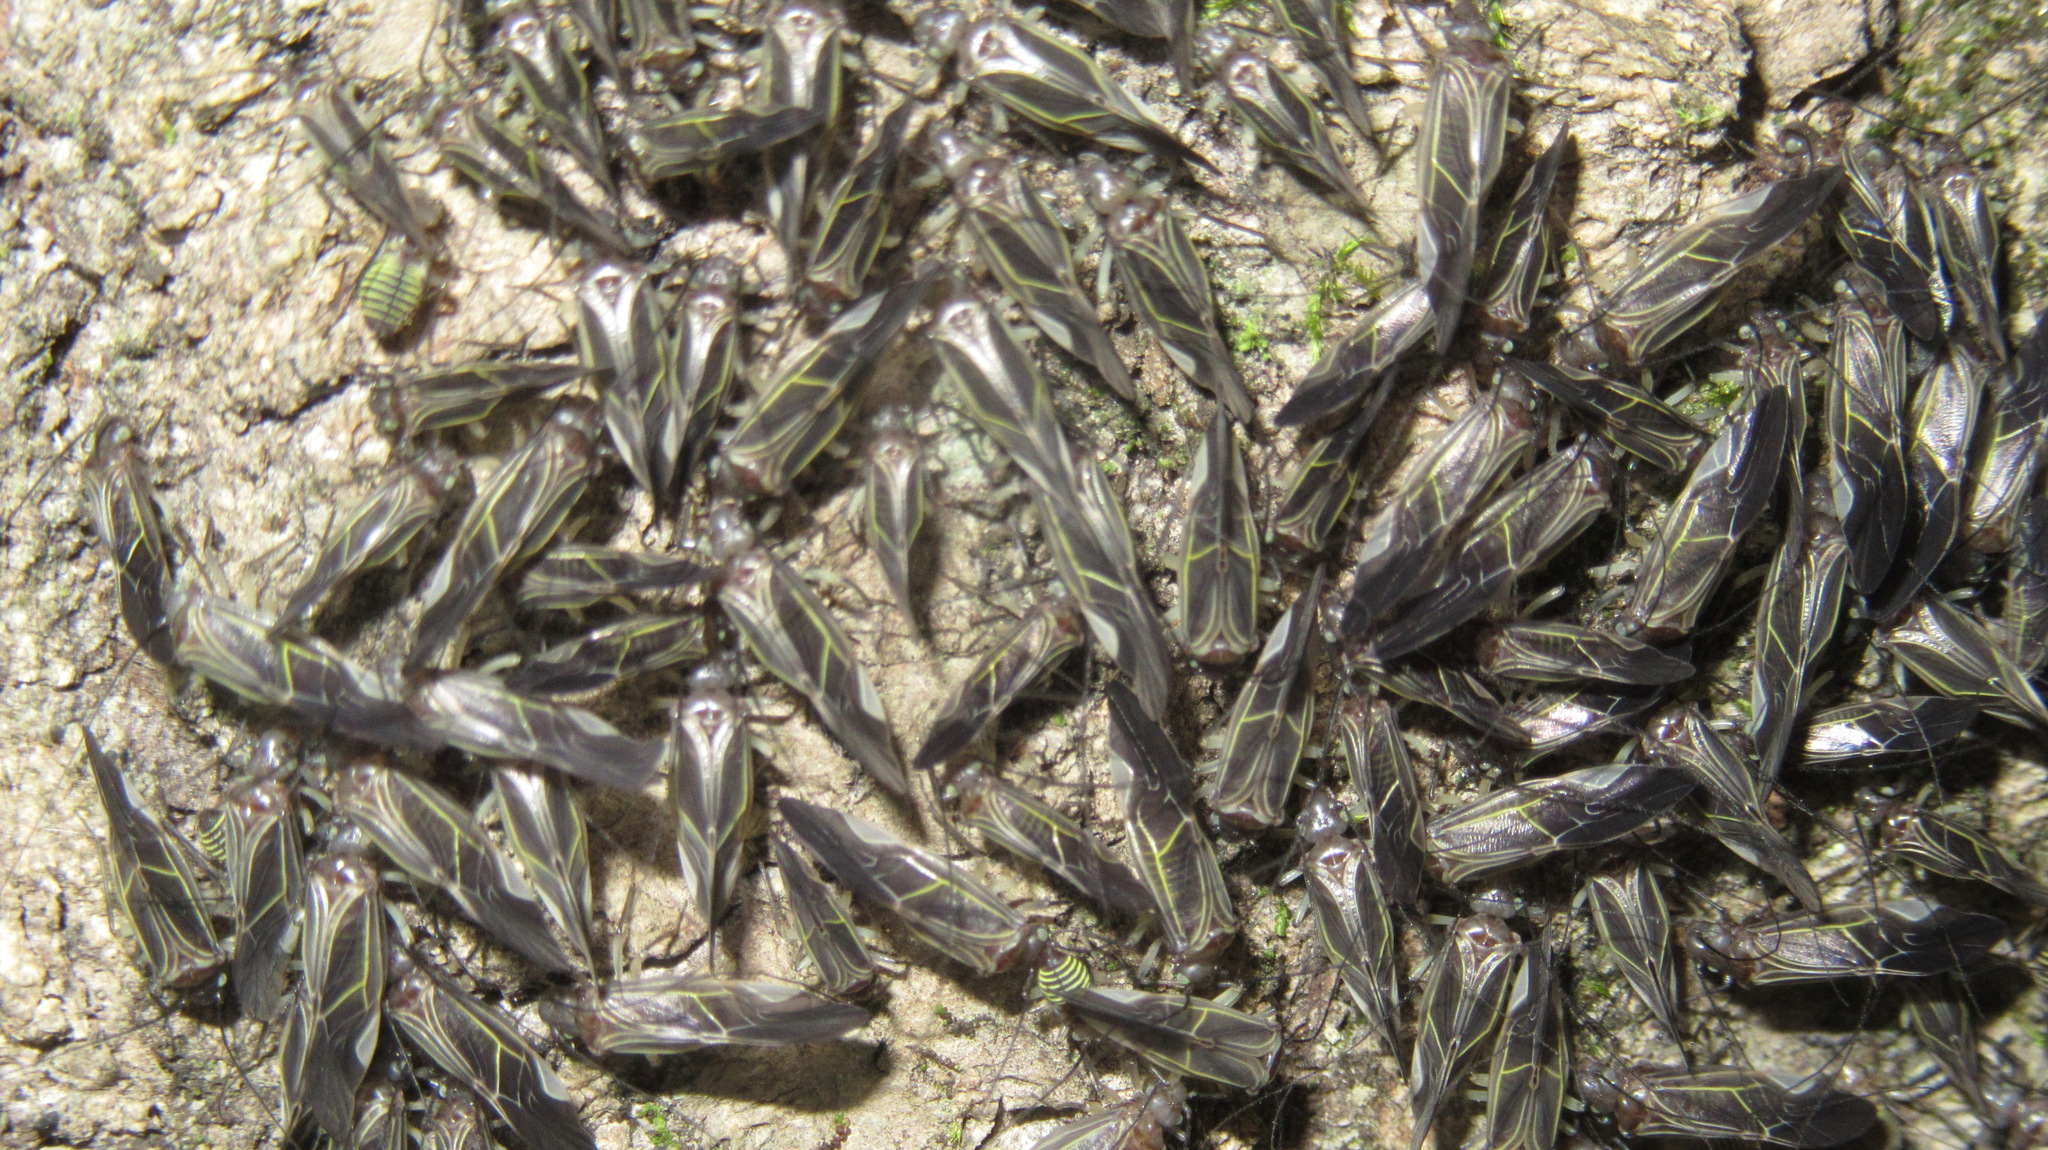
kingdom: Animalia
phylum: Arthropoda
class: Insecta
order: Psocodea
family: Psocidae
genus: Cerastipsocus
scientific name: Cerastipsocus venosus
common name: Tree cattle
